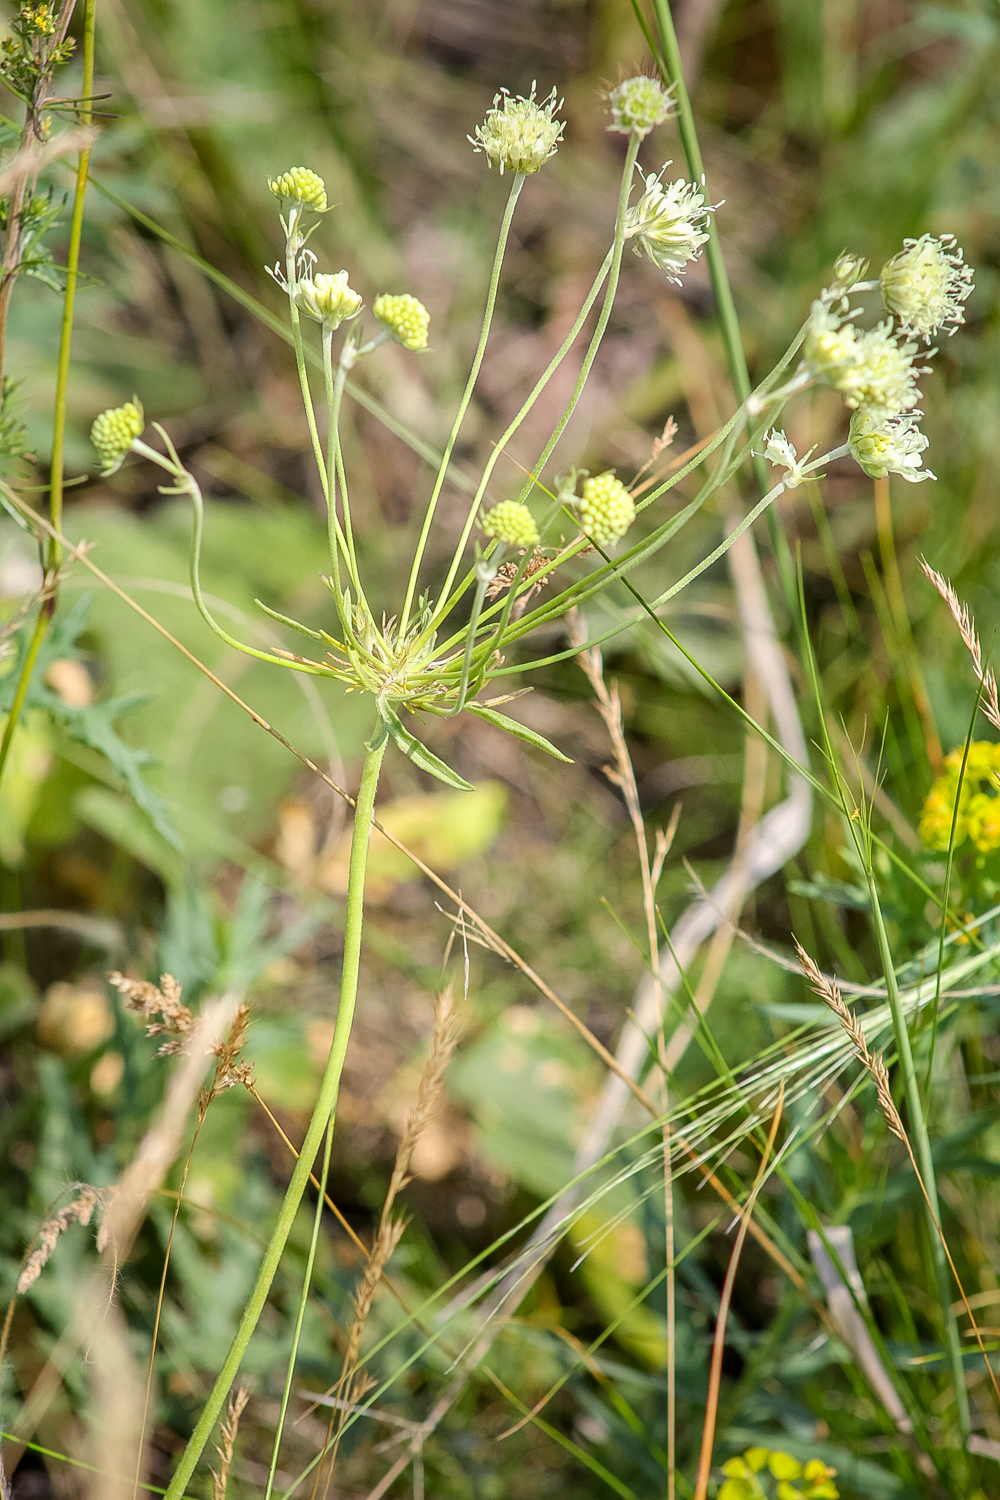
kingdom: Plantae
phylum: Tracheophyta
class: Magnoliopsida
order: Dipsacales
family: Caprifoliaceae
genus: Scabiosa
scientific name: Scabiosa ochroleuca
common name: Cream pincushions
